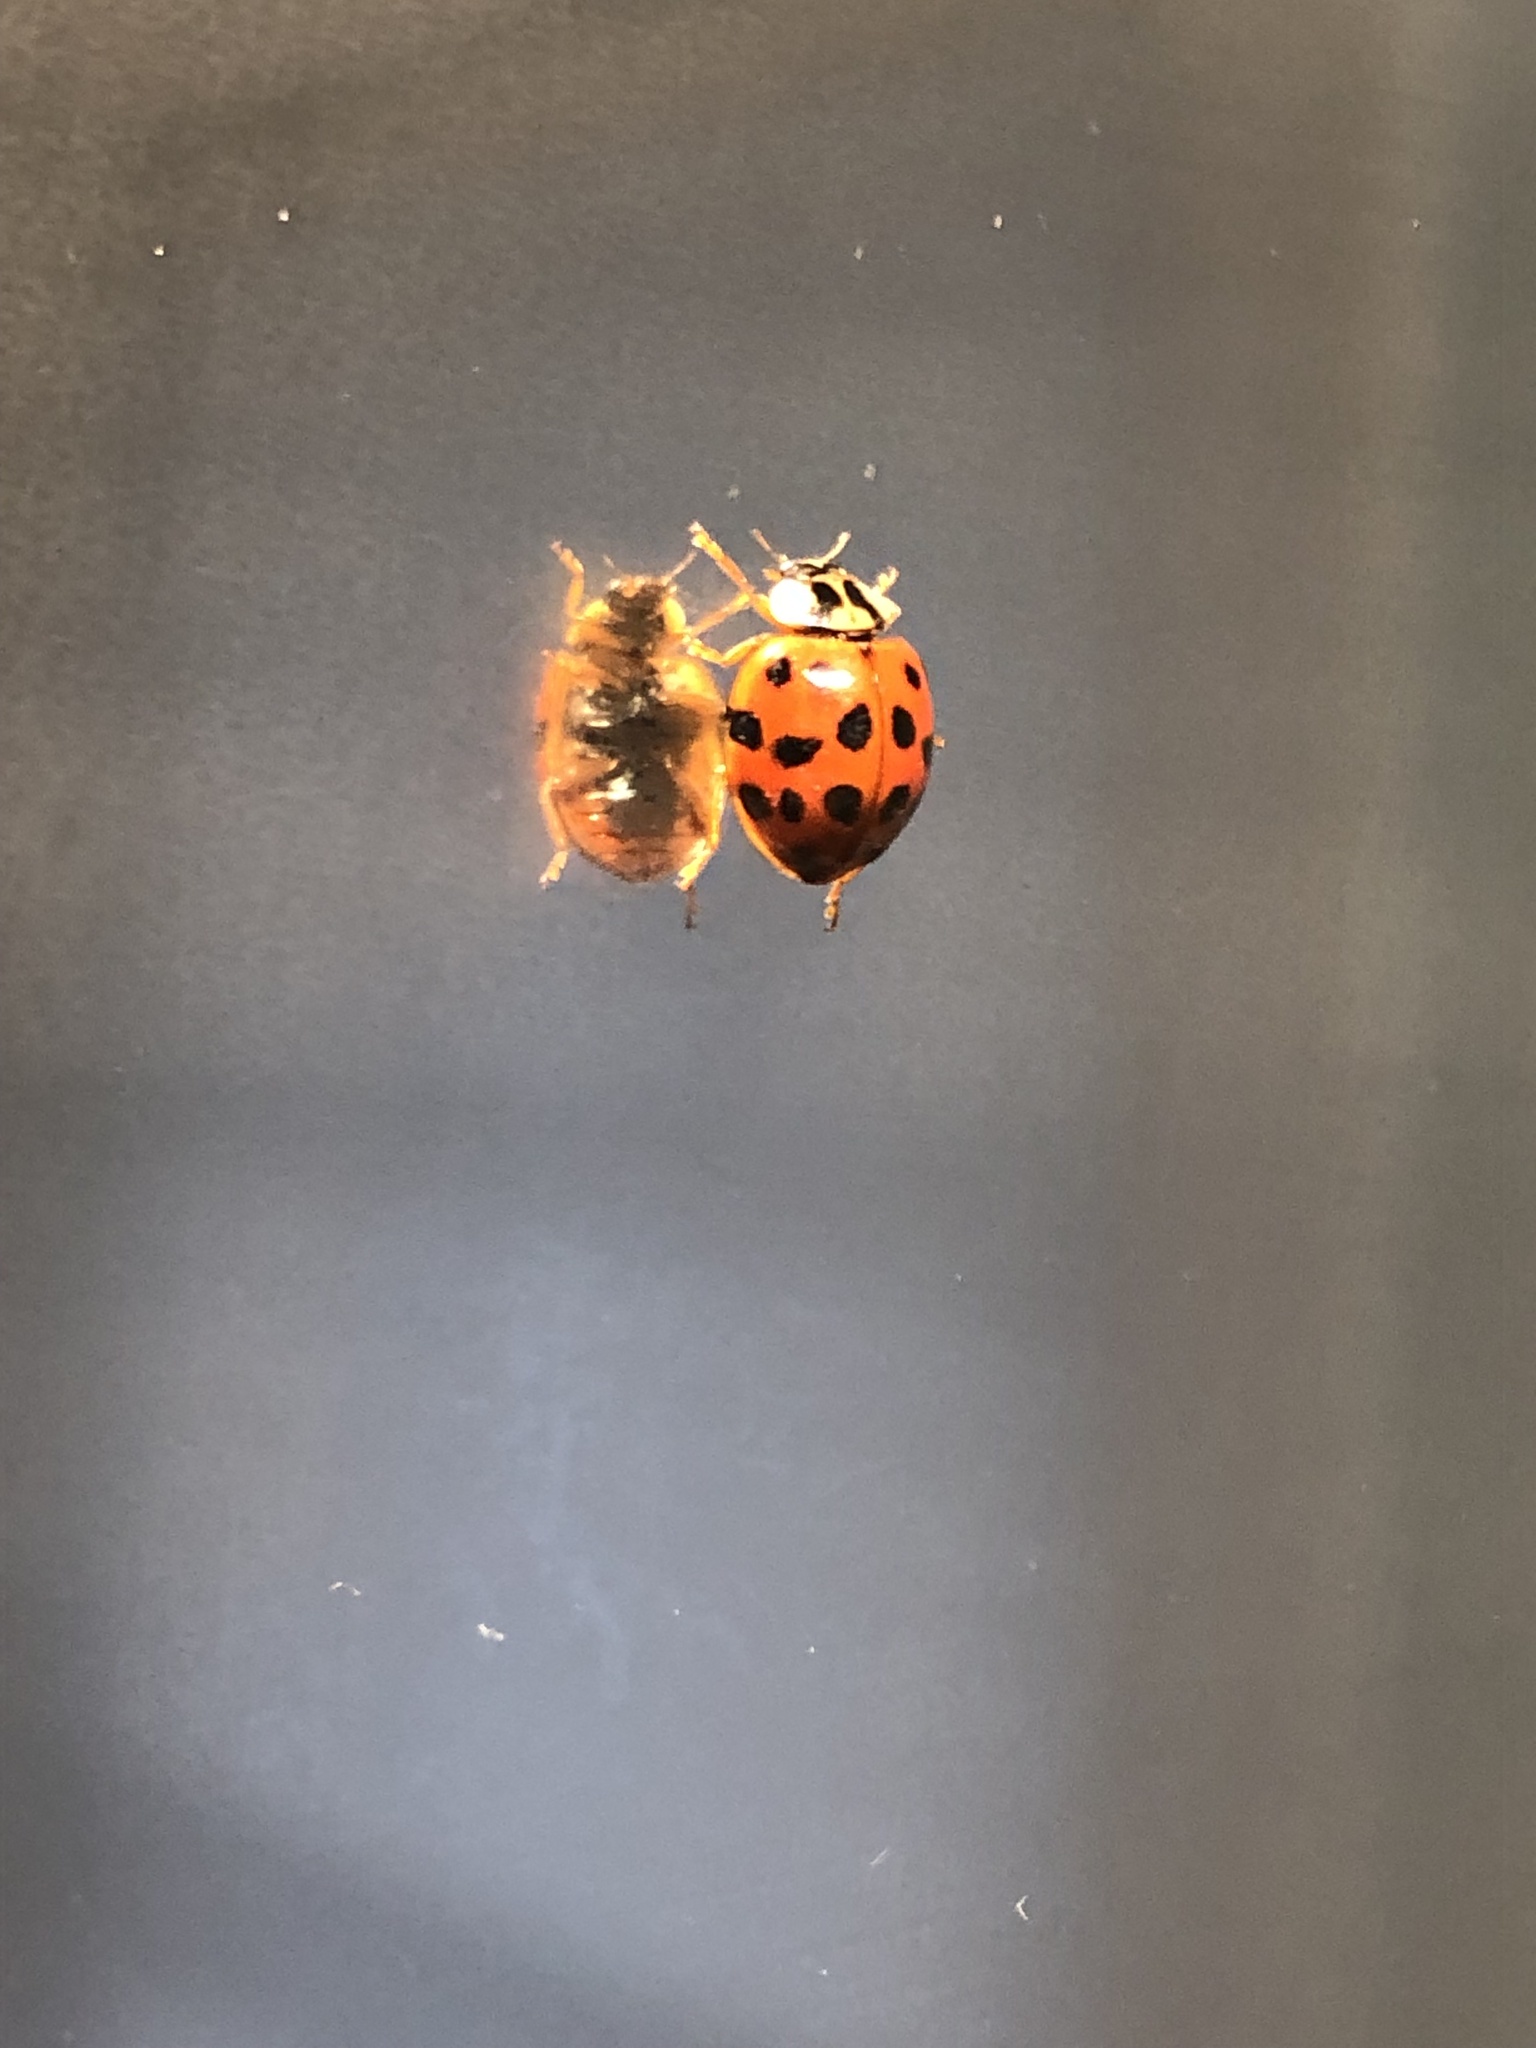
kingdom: Animalia
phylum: Arthropoda
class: Insecta
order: Coleoptera
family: Coccinellidae
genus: Harmonia
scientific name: Harmonia axyridis
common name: Harlequin ladybird
